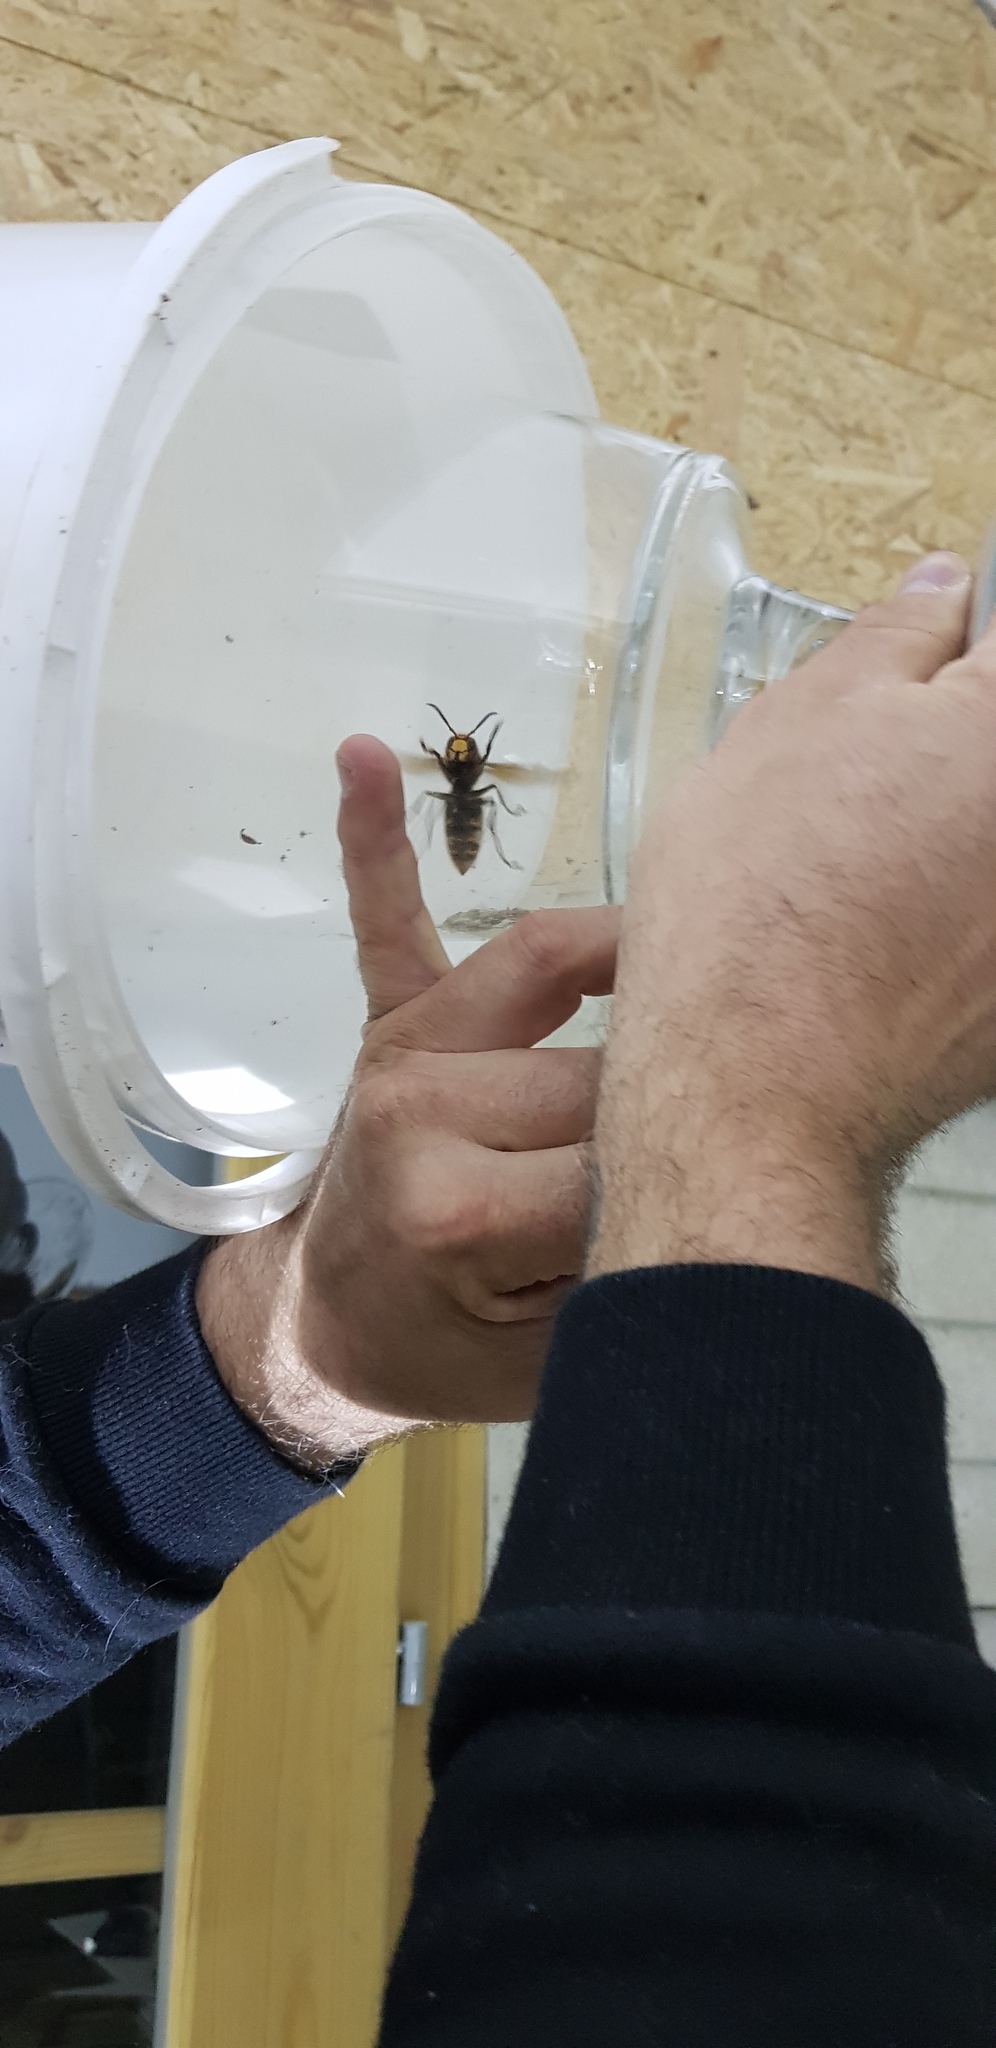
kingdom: Animalia
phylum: Arthropoda
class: Insecta
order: Hymenoptera
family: Vespidae
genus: Vespa
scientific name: Vespa crabro
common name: Hornet
